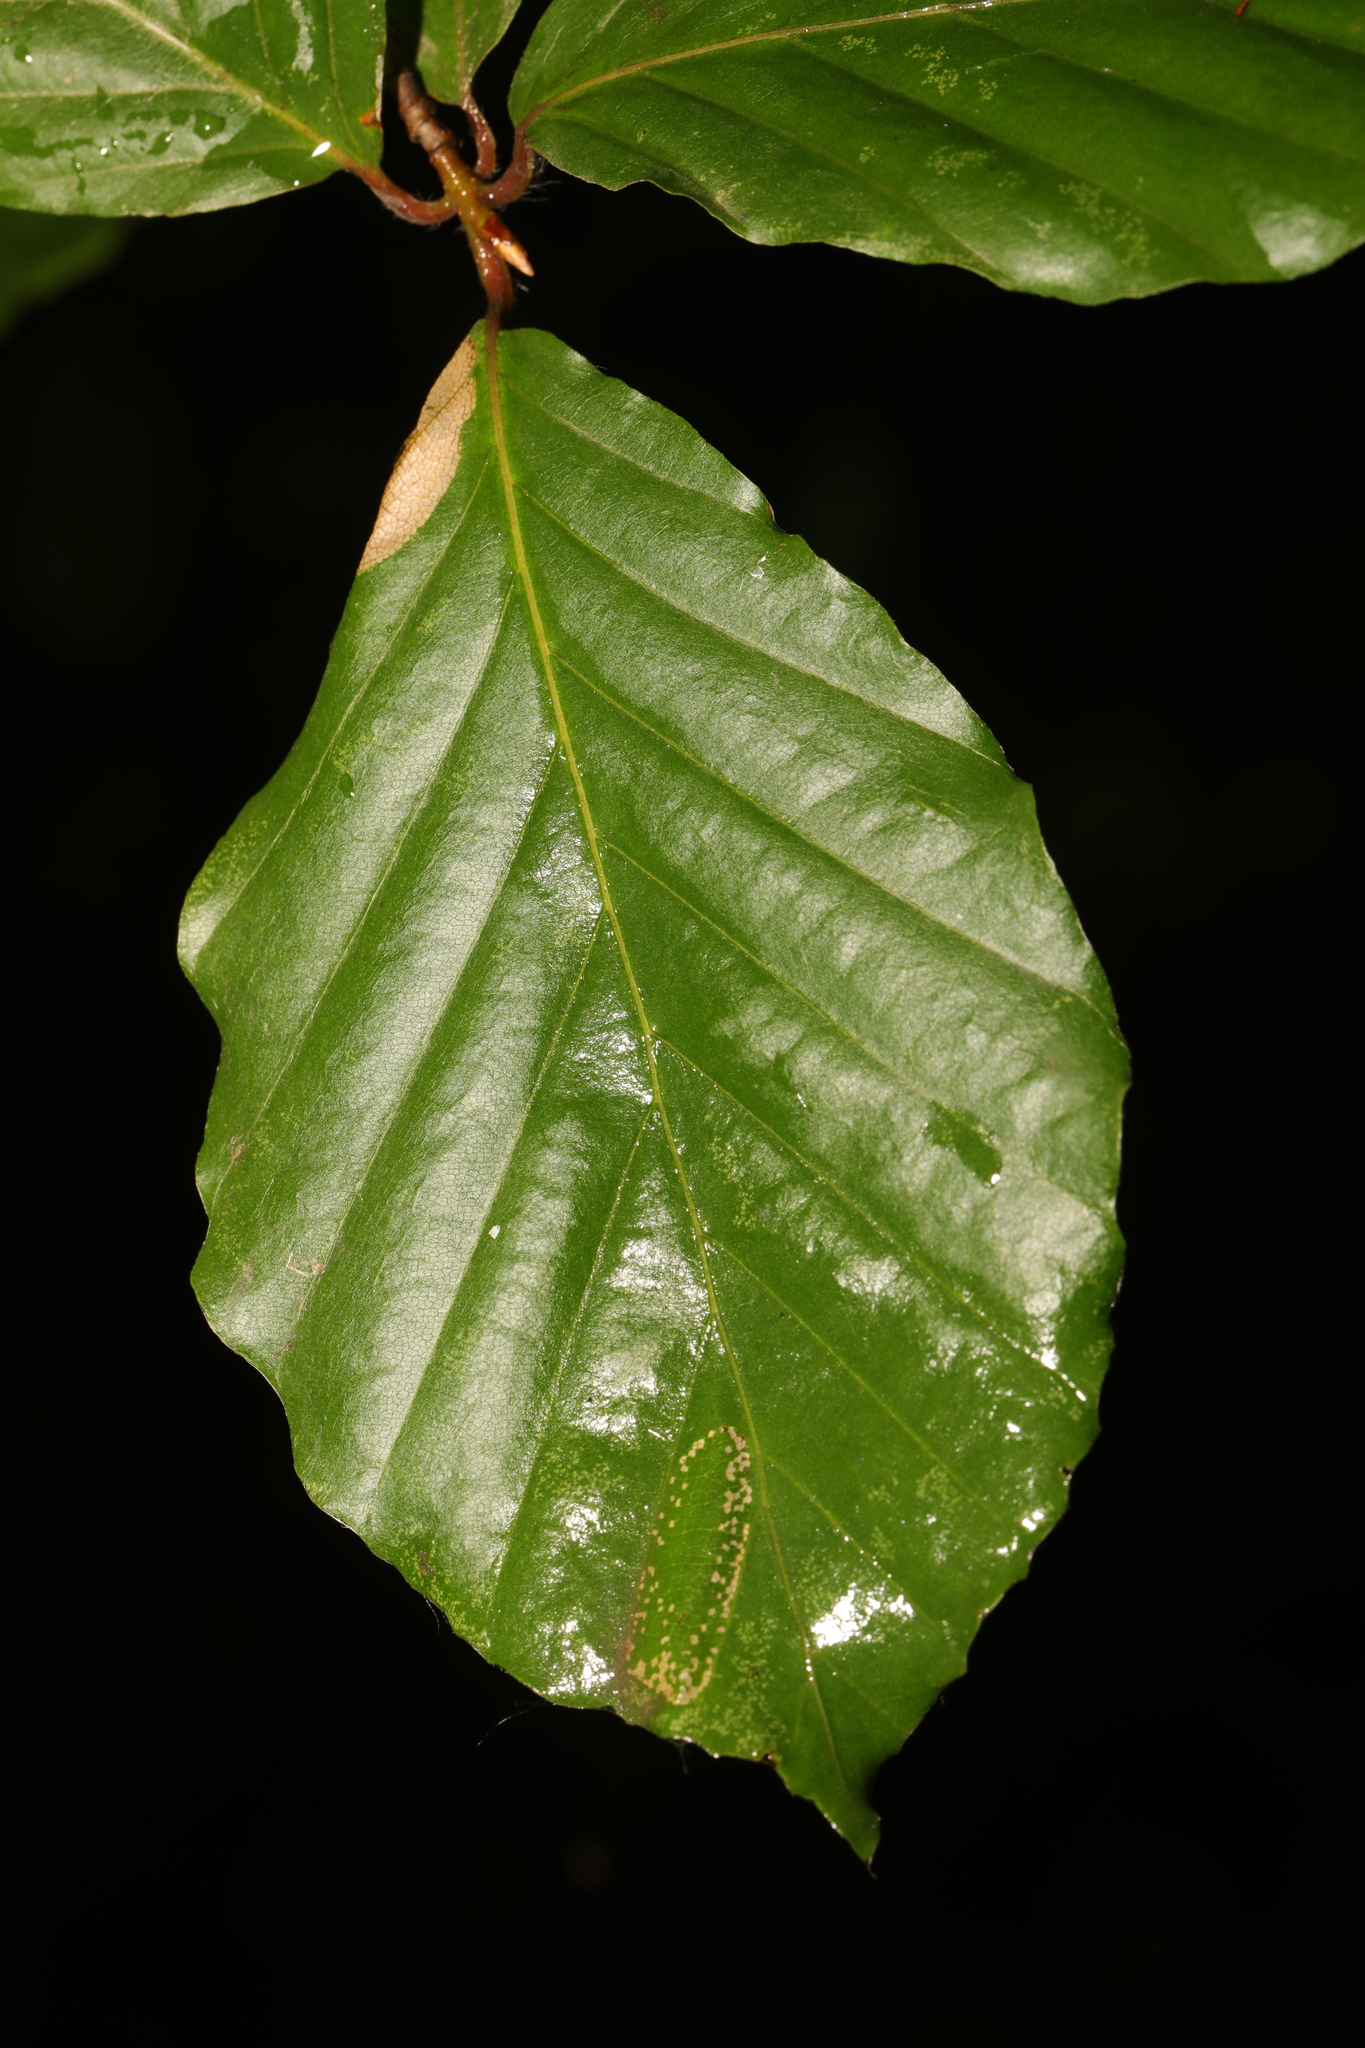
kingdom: Plantae
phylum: Tracheophyta
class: Magnoliopsida
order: Fagales
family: Fagaceae
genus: Fagus
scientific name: Fagus sylvatica
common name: Beech
